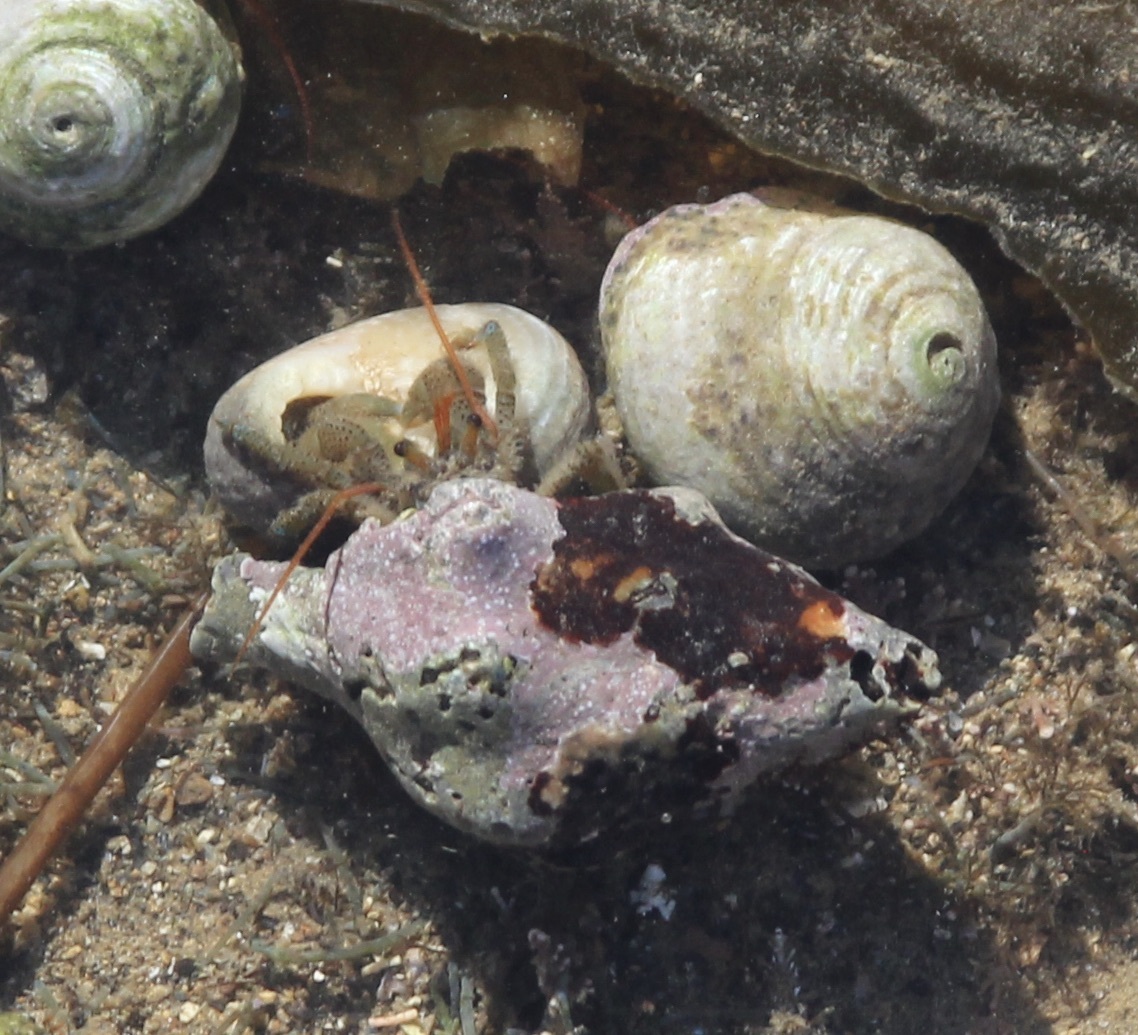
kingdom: Animalia
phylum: Arthropoda
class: Malacostraca
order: Decapoda
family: Paguridae
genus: Pagurus
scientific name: Pagurus samuelis
